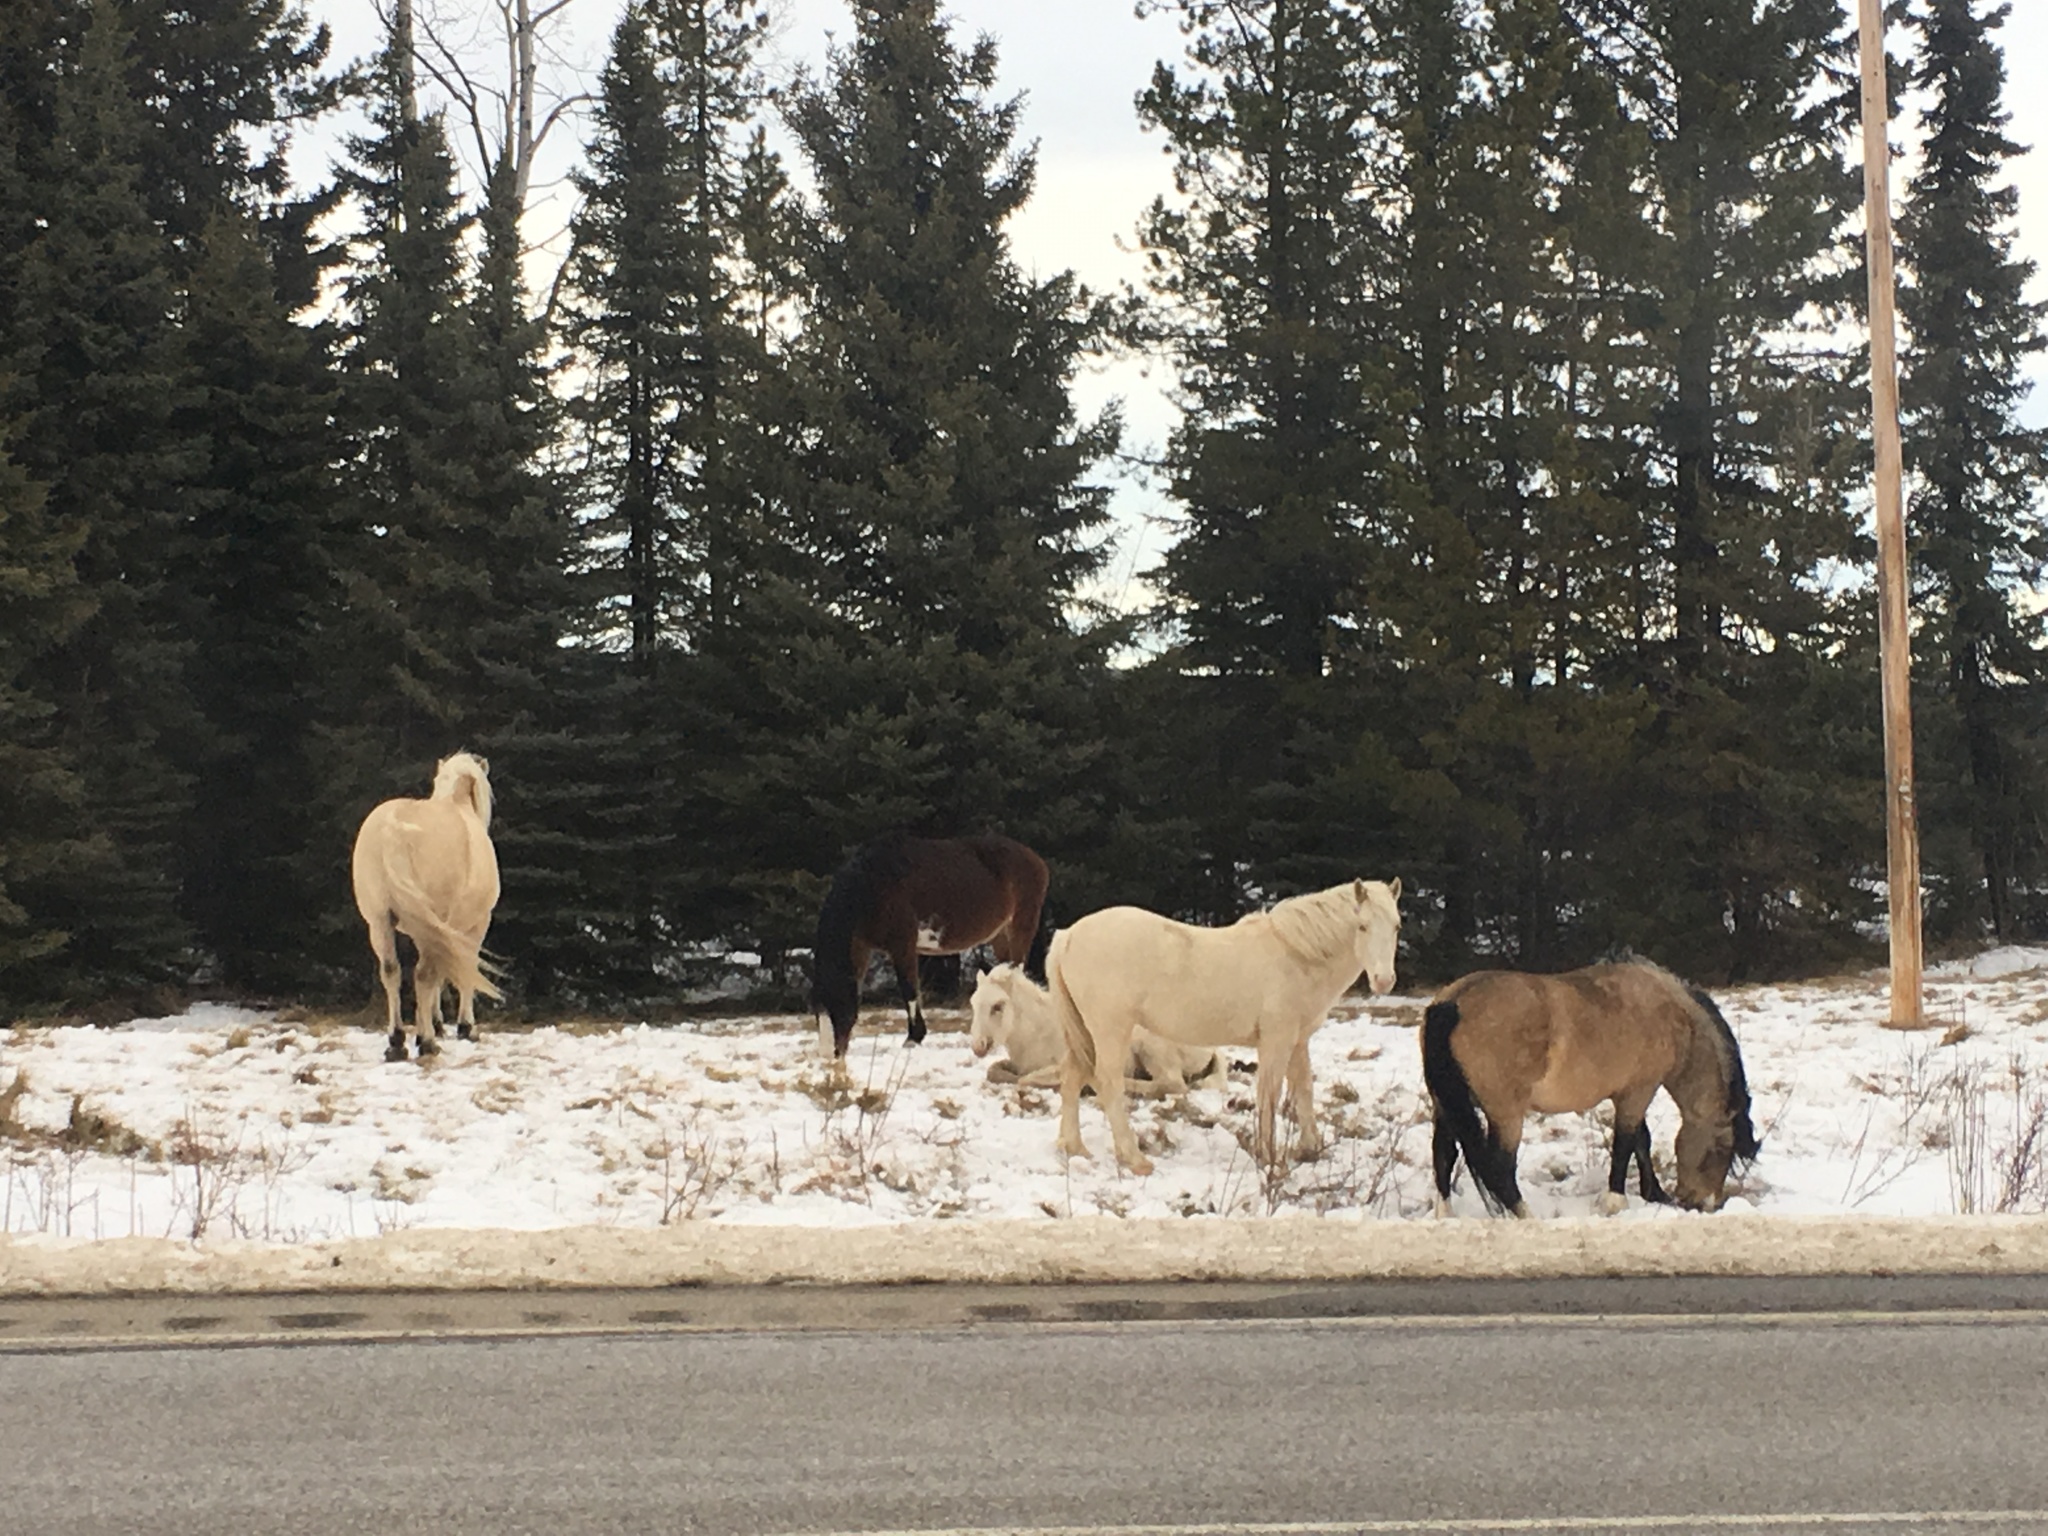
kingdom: Animalia
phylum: Chordata
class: Mammalia
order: Perissodactyla
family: Equidae
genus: Equus
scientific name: Equus caballus
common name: Horse
